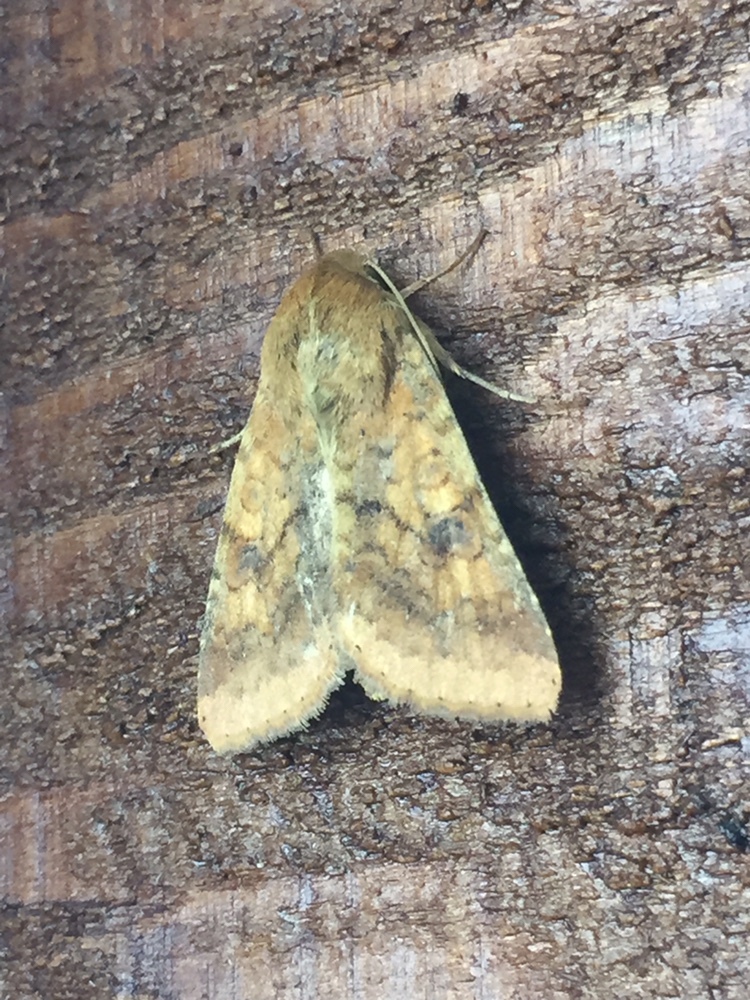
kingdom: Animalia
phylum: Arthropoda
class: Insecta
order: Lepidoptera
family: Noctuidae
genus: Helicoverpa
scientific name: Helicoverpa armigera
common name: Cotton bollworm
